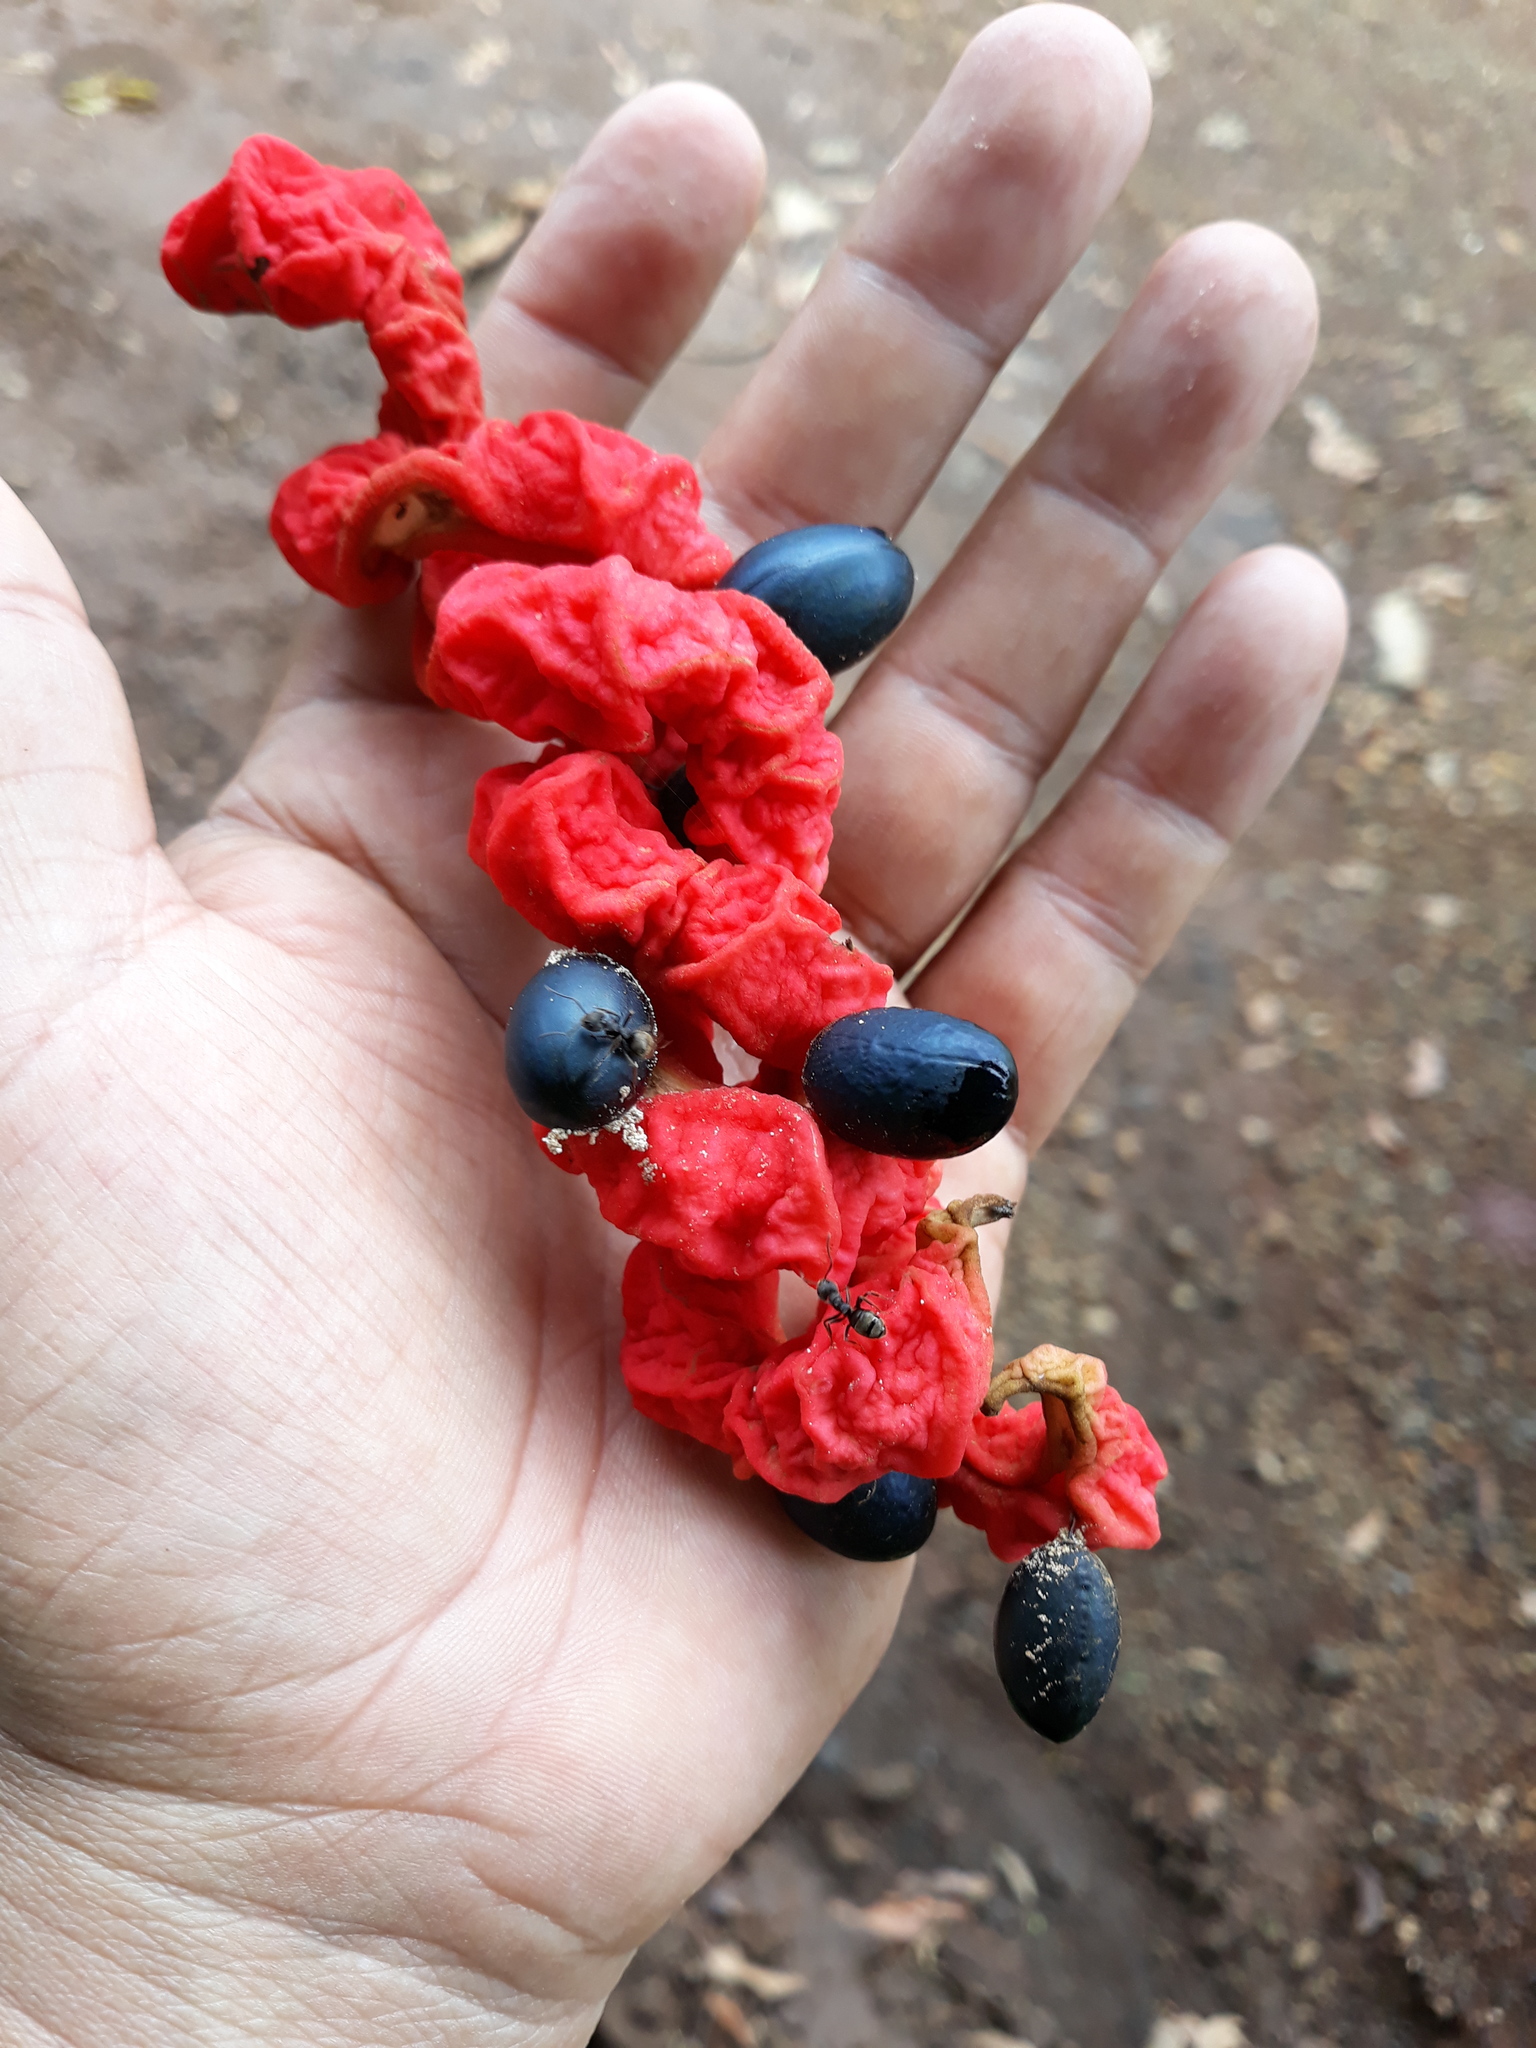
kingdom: Plantae
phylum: Tracheophyta
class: Magnoliopsida
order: Fabales
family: Fabaceae
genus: Cojoba
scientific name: Cojoba arborea
